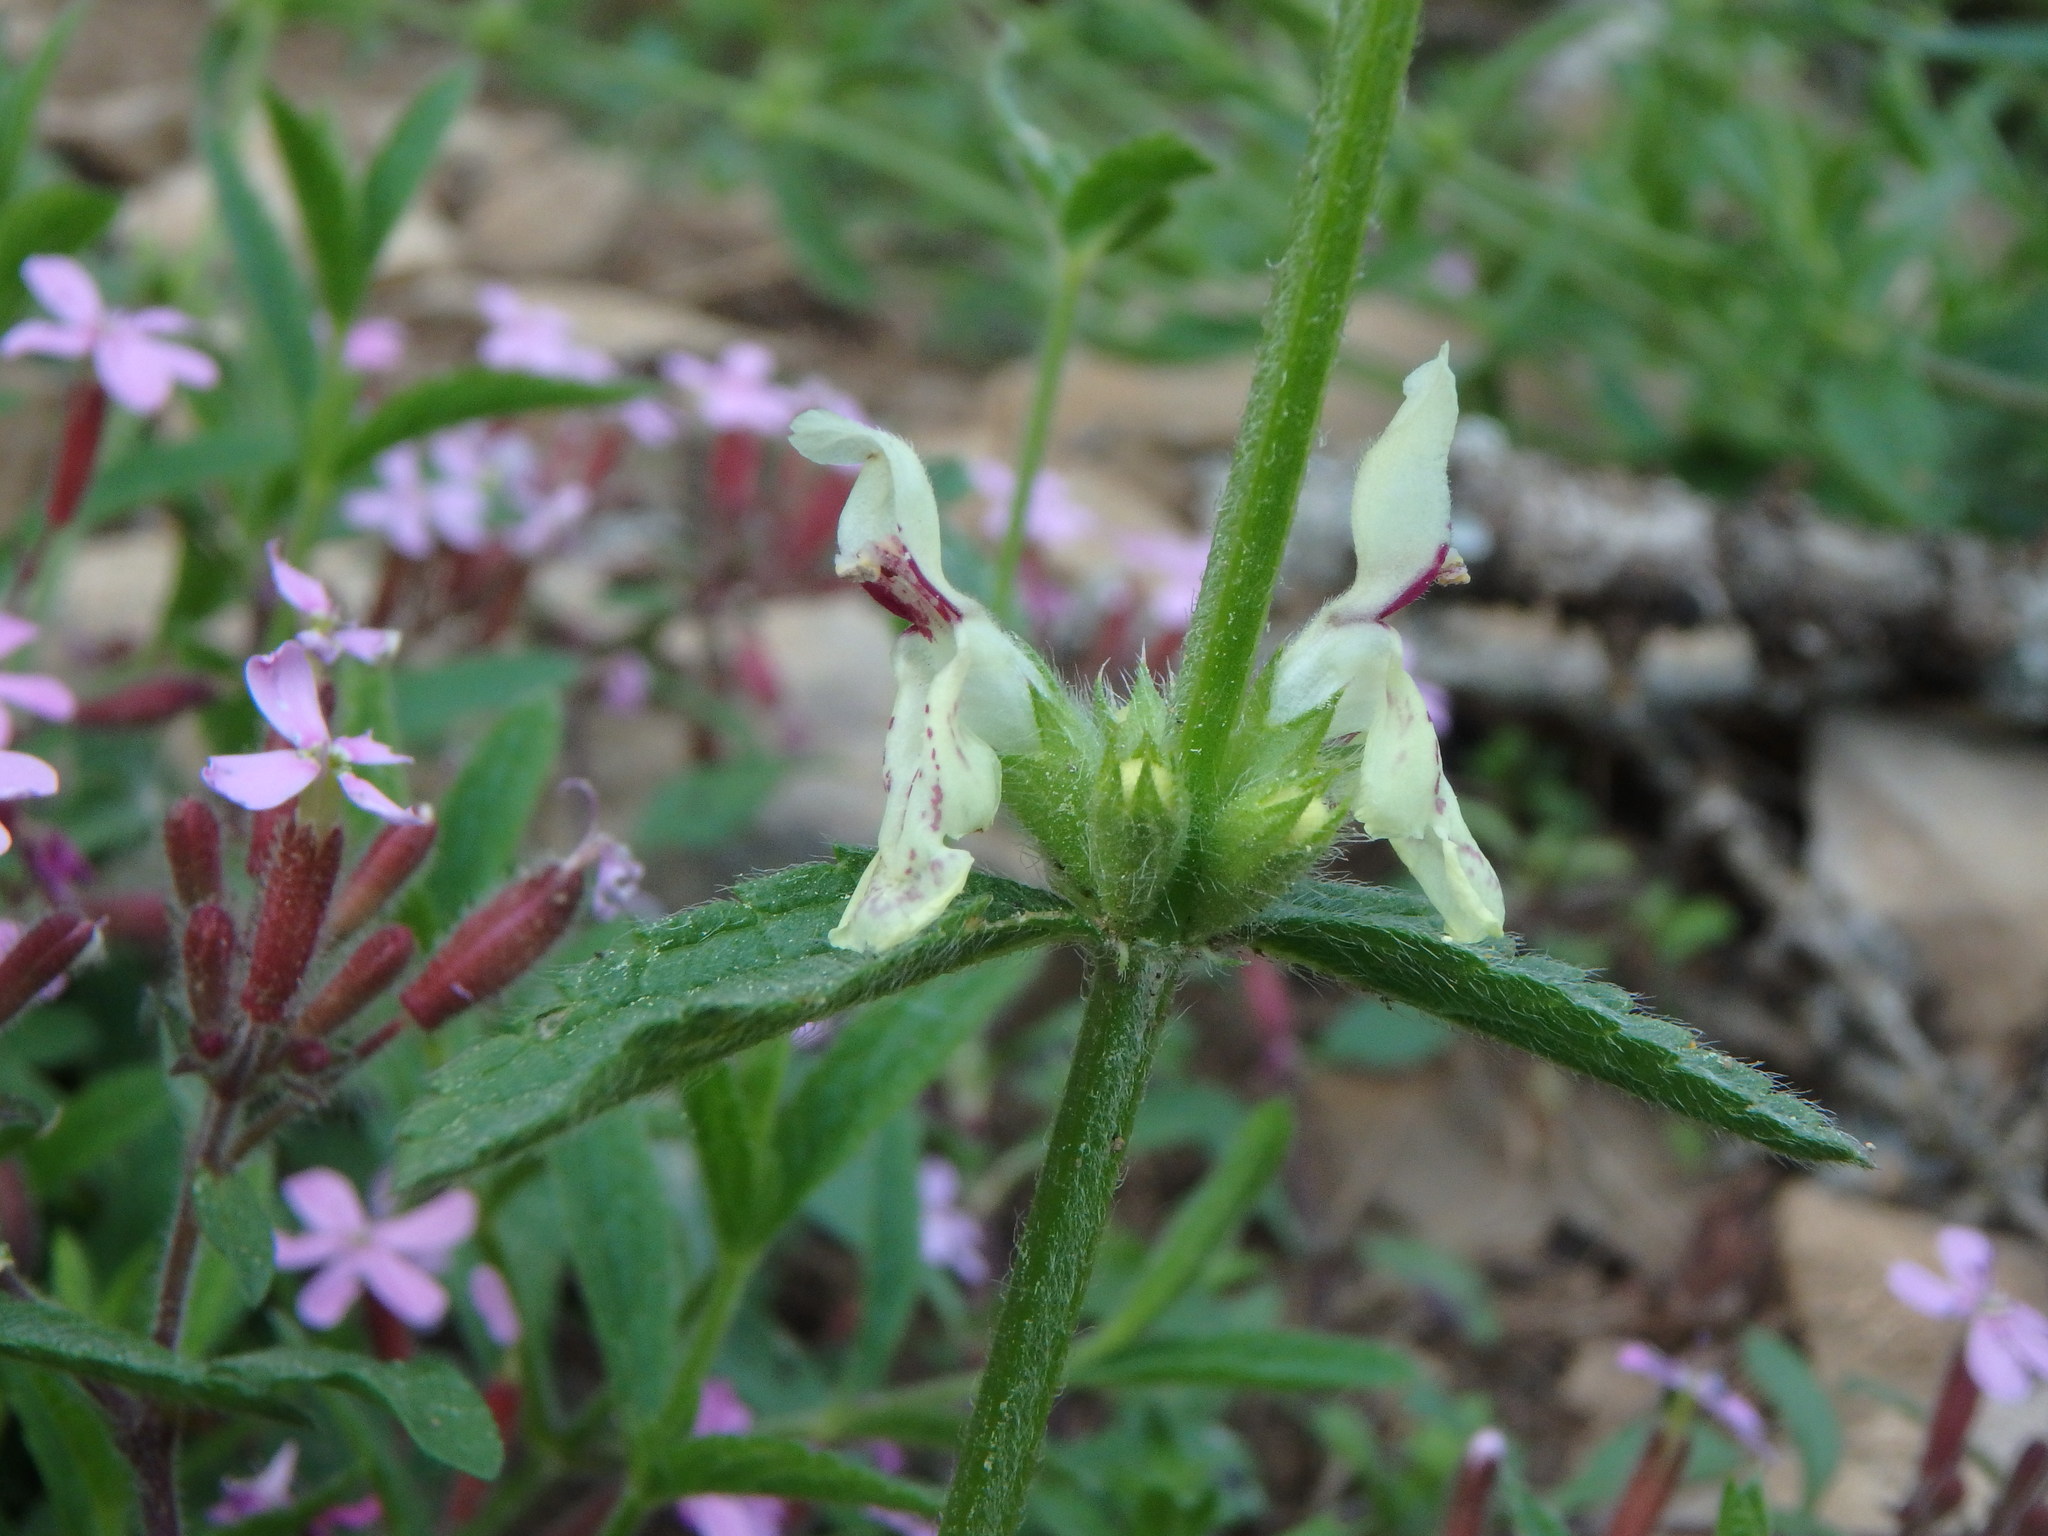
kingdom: Plantae
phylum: Tracheophyta
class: Magnoliopsida
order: Lamiales
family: Lamiaceae
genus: Stachys
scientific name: Stachys recta
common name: Perennial yellow-woundwort
